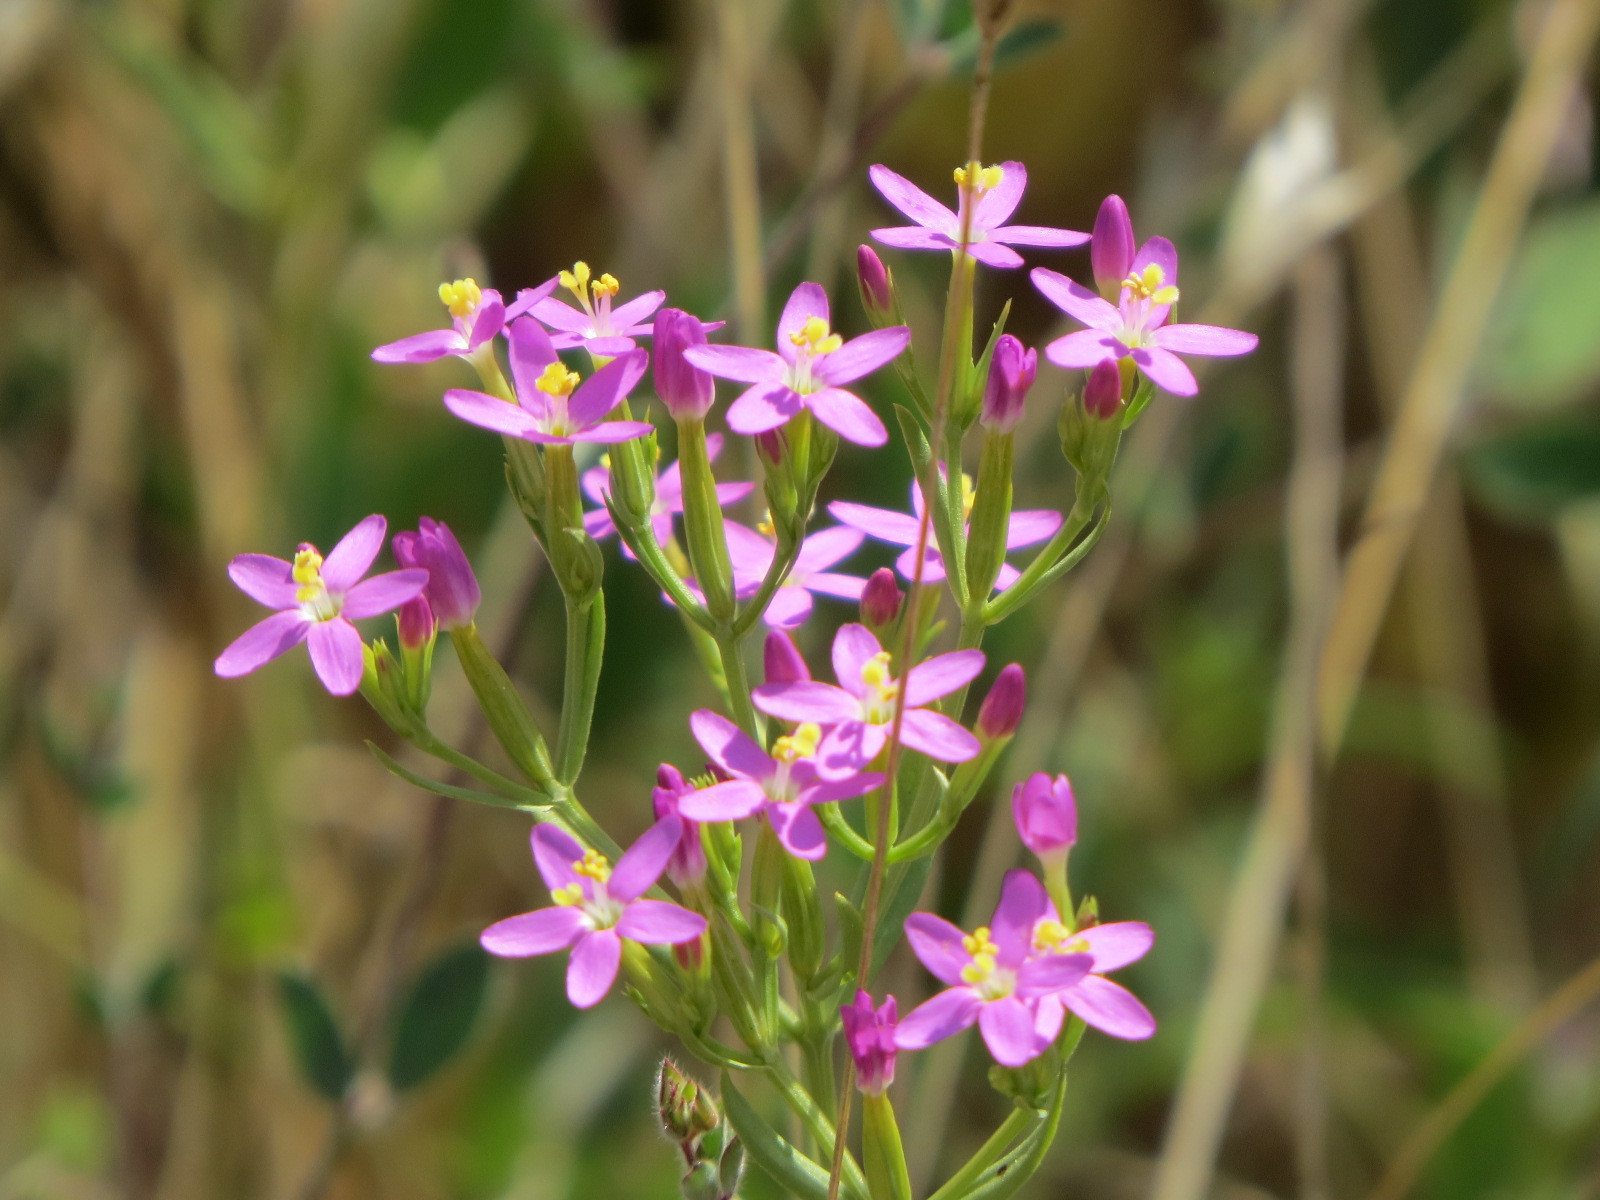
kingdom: Plantae
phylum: Tracheophyta
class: Magnoliopsida
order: Gentianales
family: Gentianaceae
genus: Zeltnera
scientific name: Zeltnera muhlenbergii
